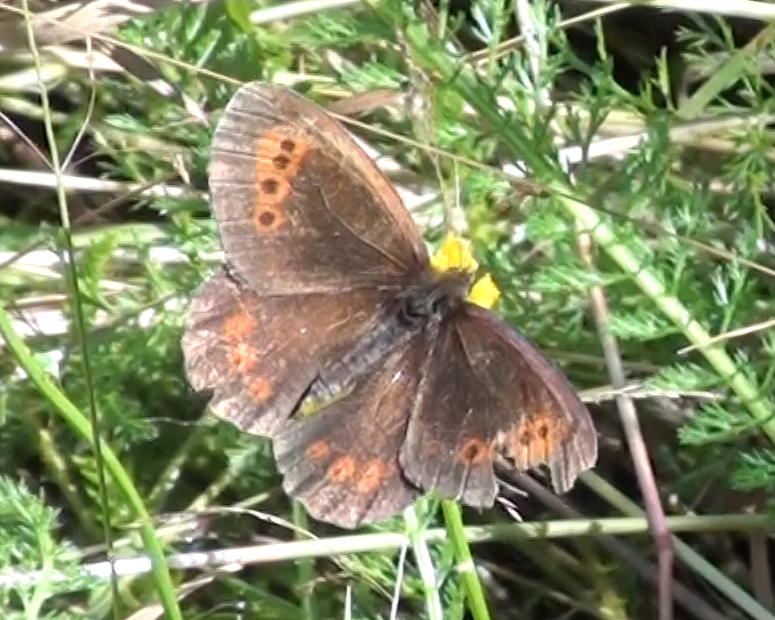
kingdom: Animalia
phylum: Arthropoda
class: Insecta
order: Lepidoptera
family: Nymphalidae
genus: Erebia
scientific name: Erebia ligea
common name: Arran brown
